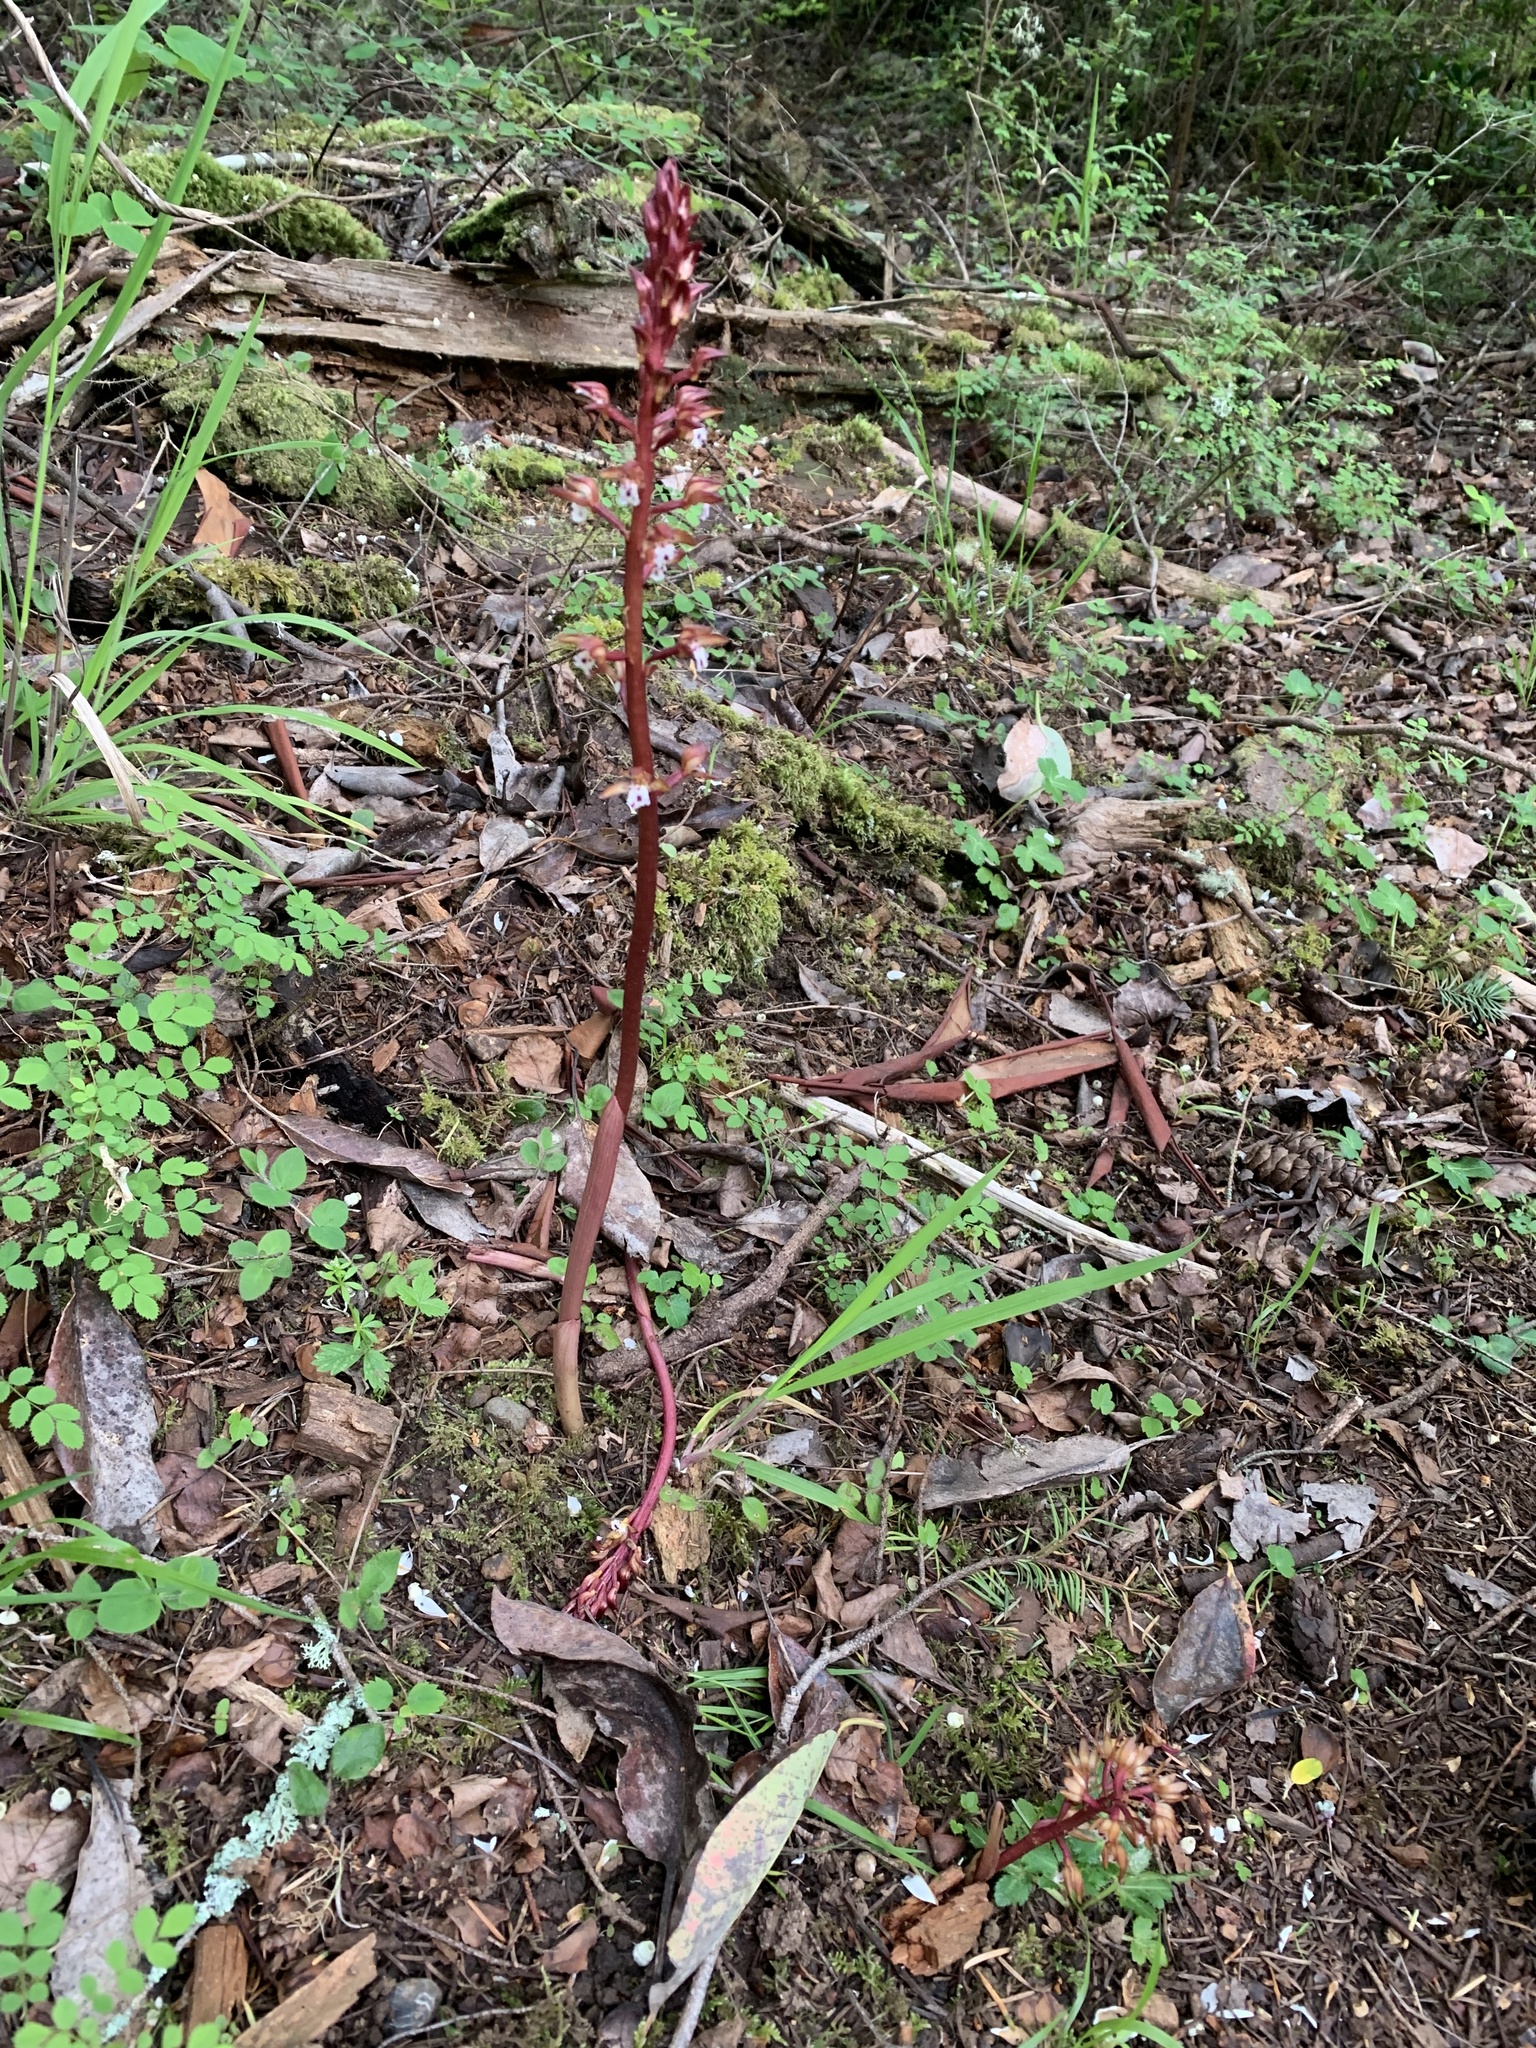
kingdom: Plantae
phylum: Tracheophyta
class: Liliopsida
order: Asparagales
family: Orchidaceae
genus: Corallorhiza
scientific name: Corallorhiza maculata
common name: Spotted coralroot
